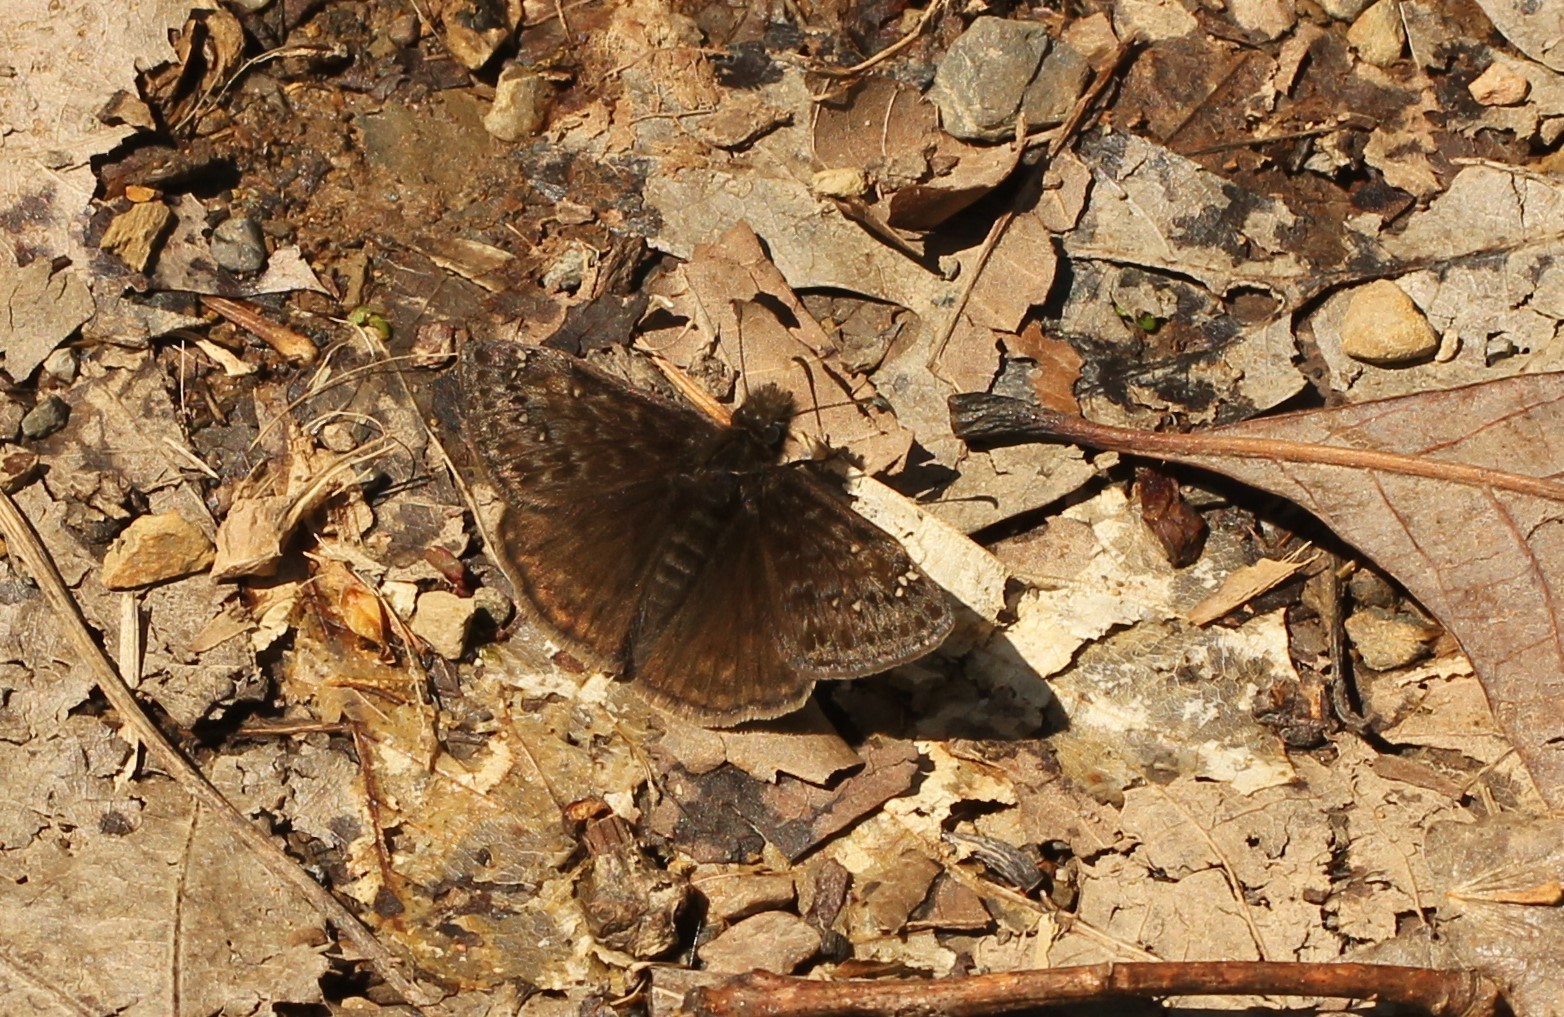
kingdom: Animalia
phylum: Arthropoda
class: Insecta
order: Lepidoptera
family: Hesperiidae
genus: Erynnis
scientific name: Erynnis juvenalis
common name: Juvenal's duskywing
